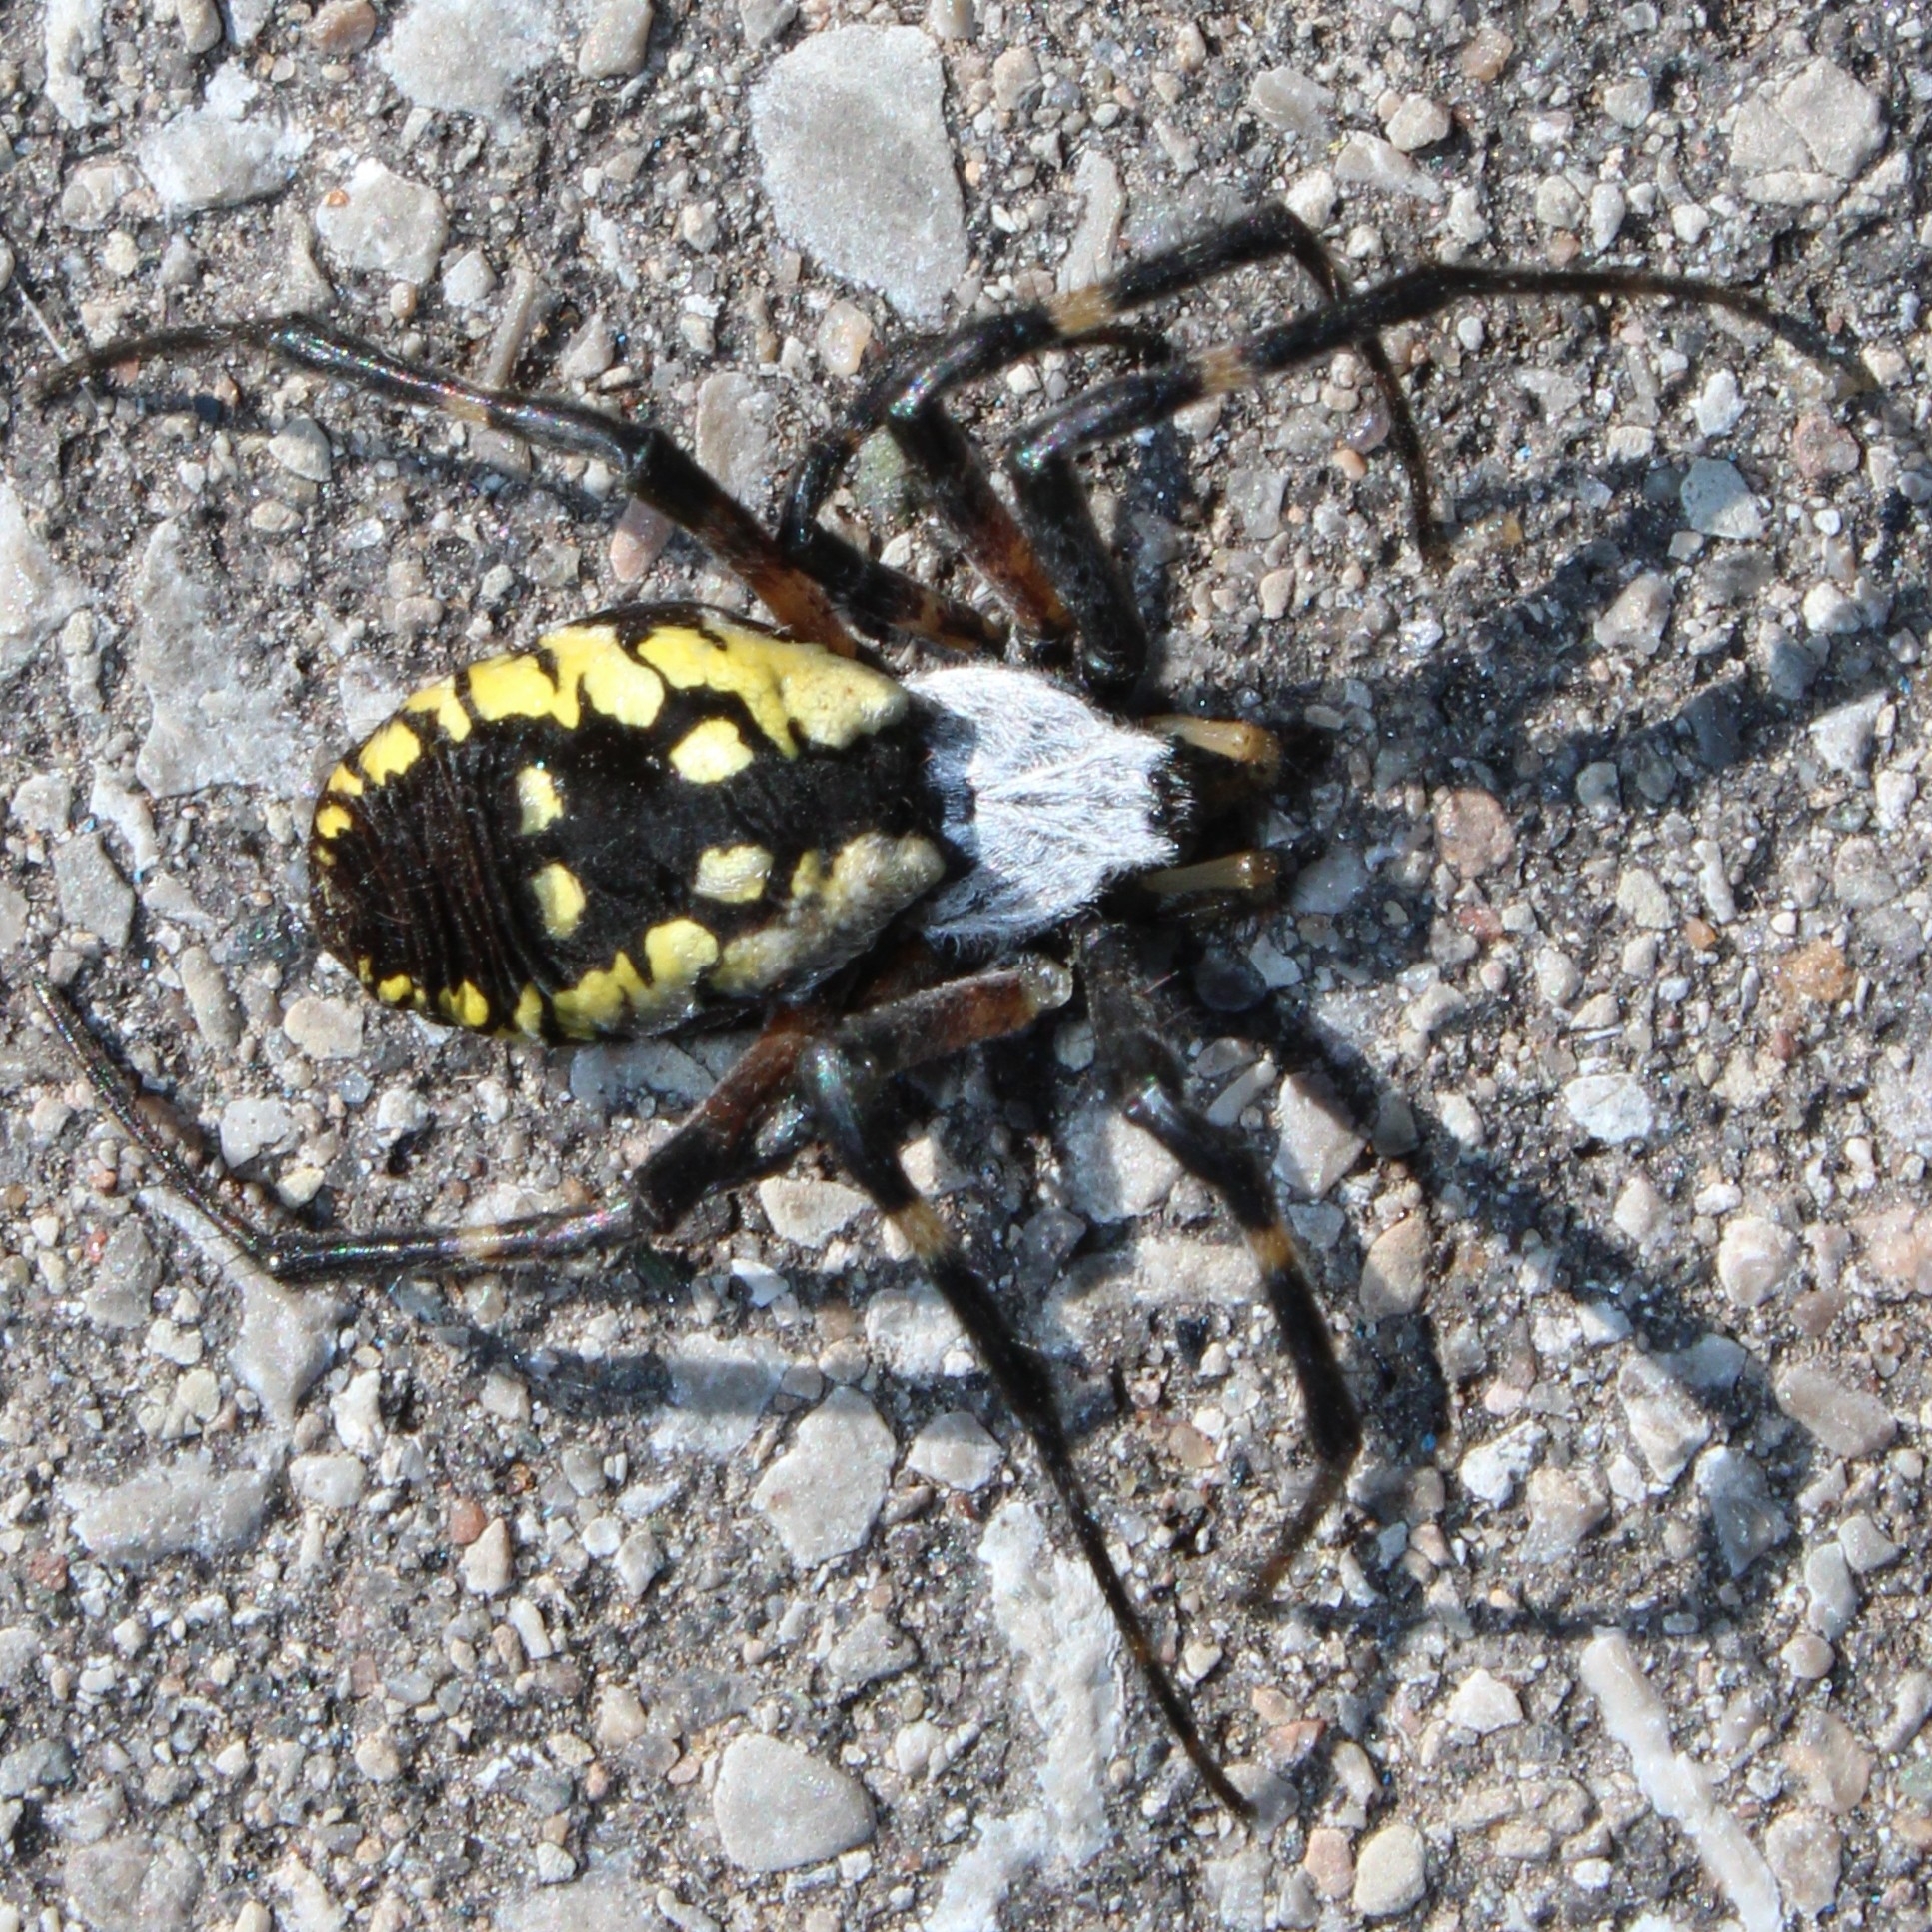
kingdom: Animalia
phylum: Arthropoda
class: Arachnida
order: Araneae
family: Araneidae
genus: Argiope
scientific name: Argiope aurantia
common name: Orb weavers
